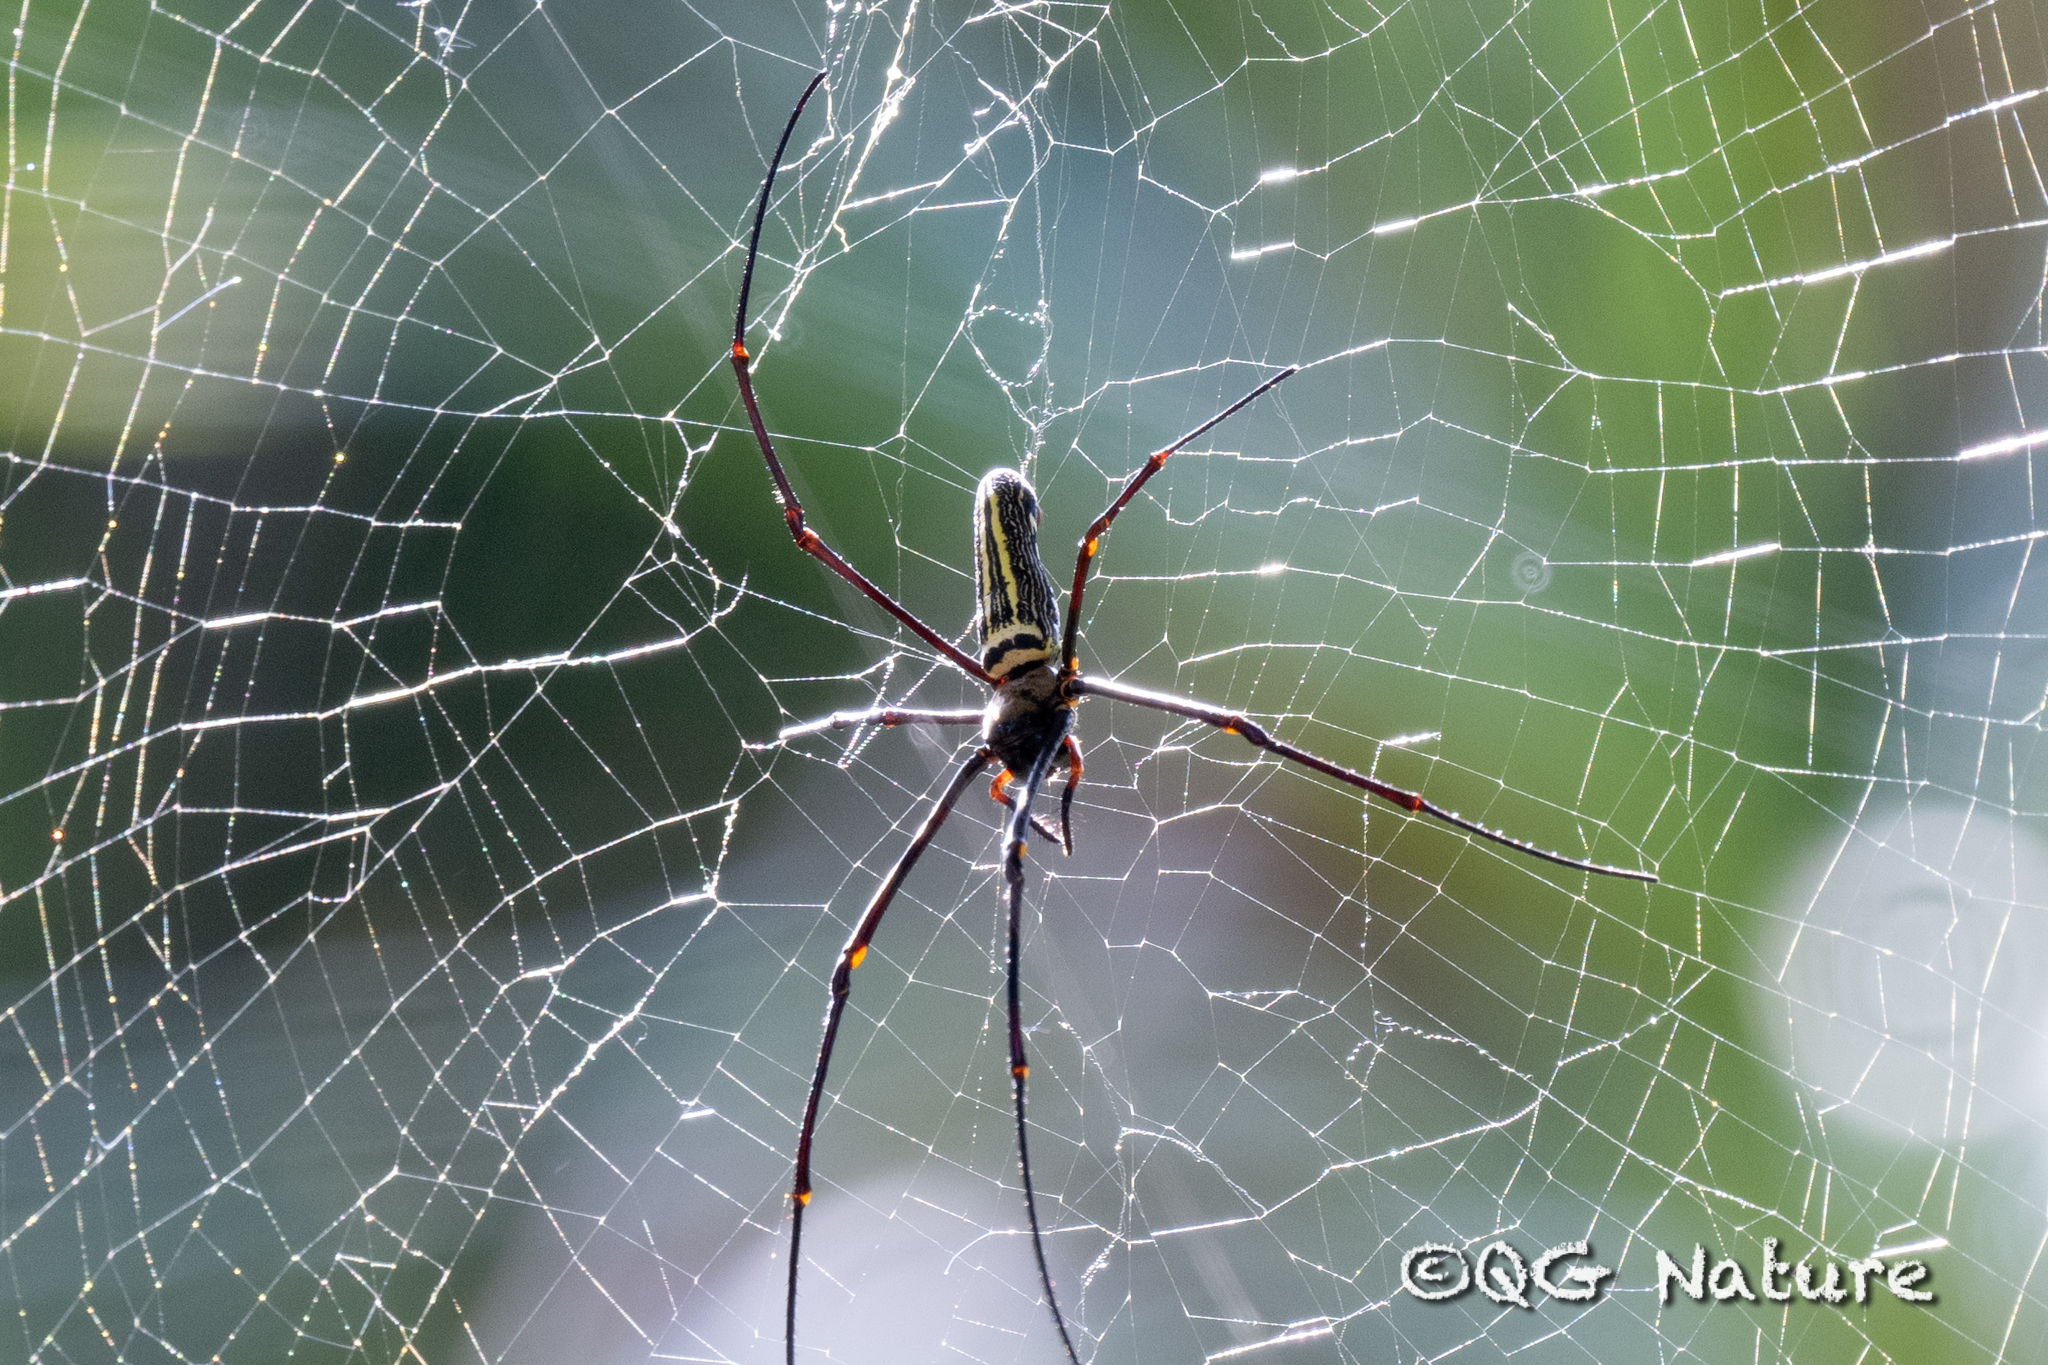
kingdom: Animalia
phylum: Arthropoda
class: Arachnida
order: Araneae
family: Araneidae
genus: Nephila
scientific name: Nephila pilipes
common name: Giant golden orb weaver
